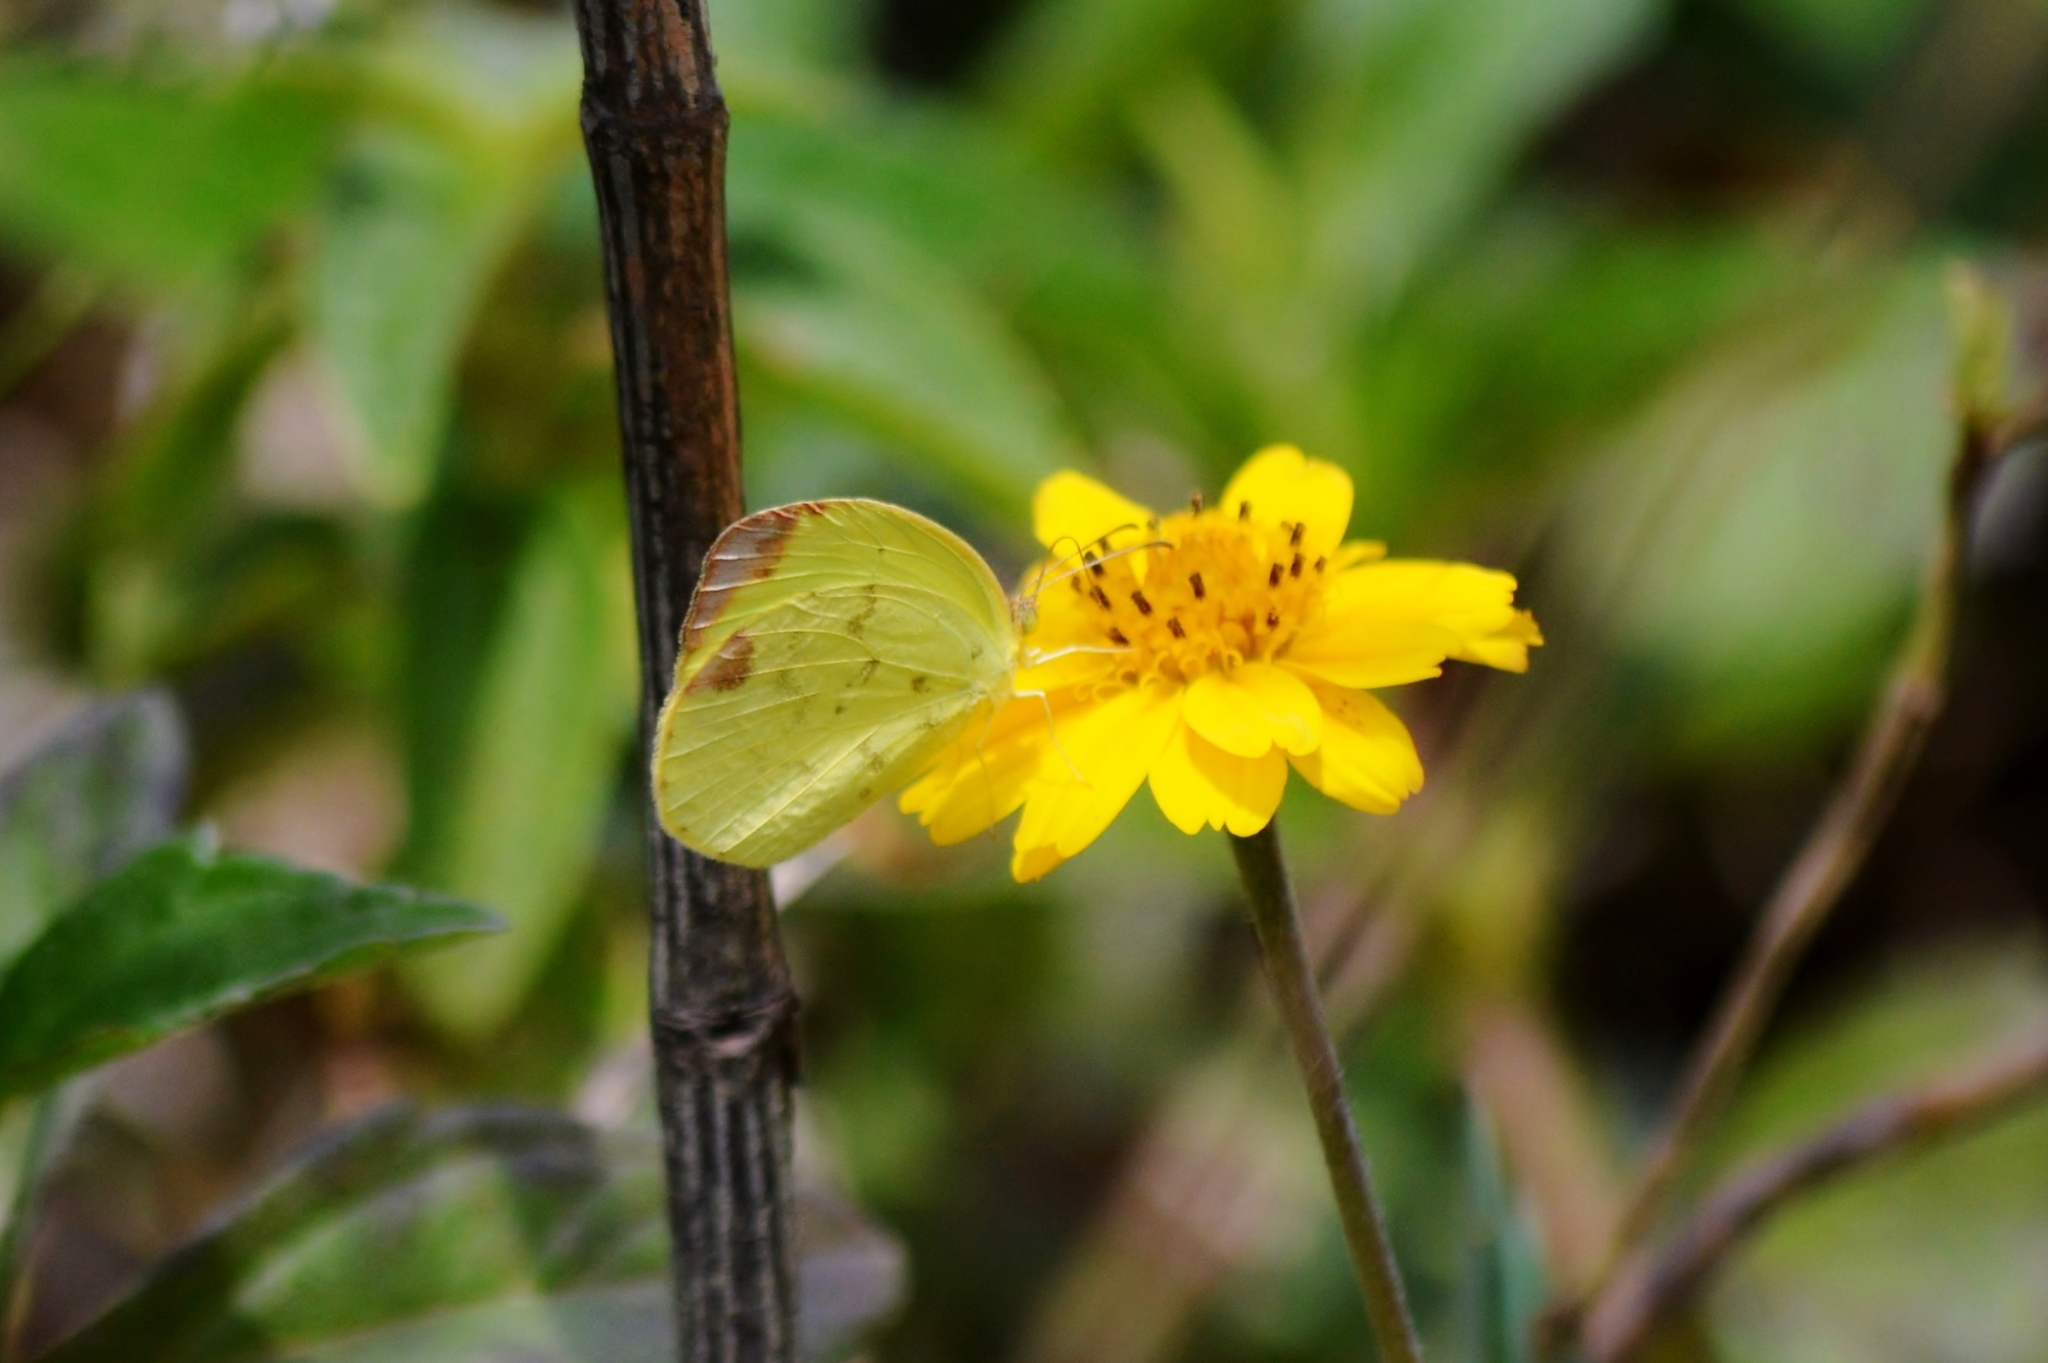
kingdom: Animalia
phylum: Arthropoda
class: Insecta
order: Lepidoptera
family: Pieridae
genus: Pyrisitia
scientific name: Pyrisitia leuce
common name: Hall's sulfur
